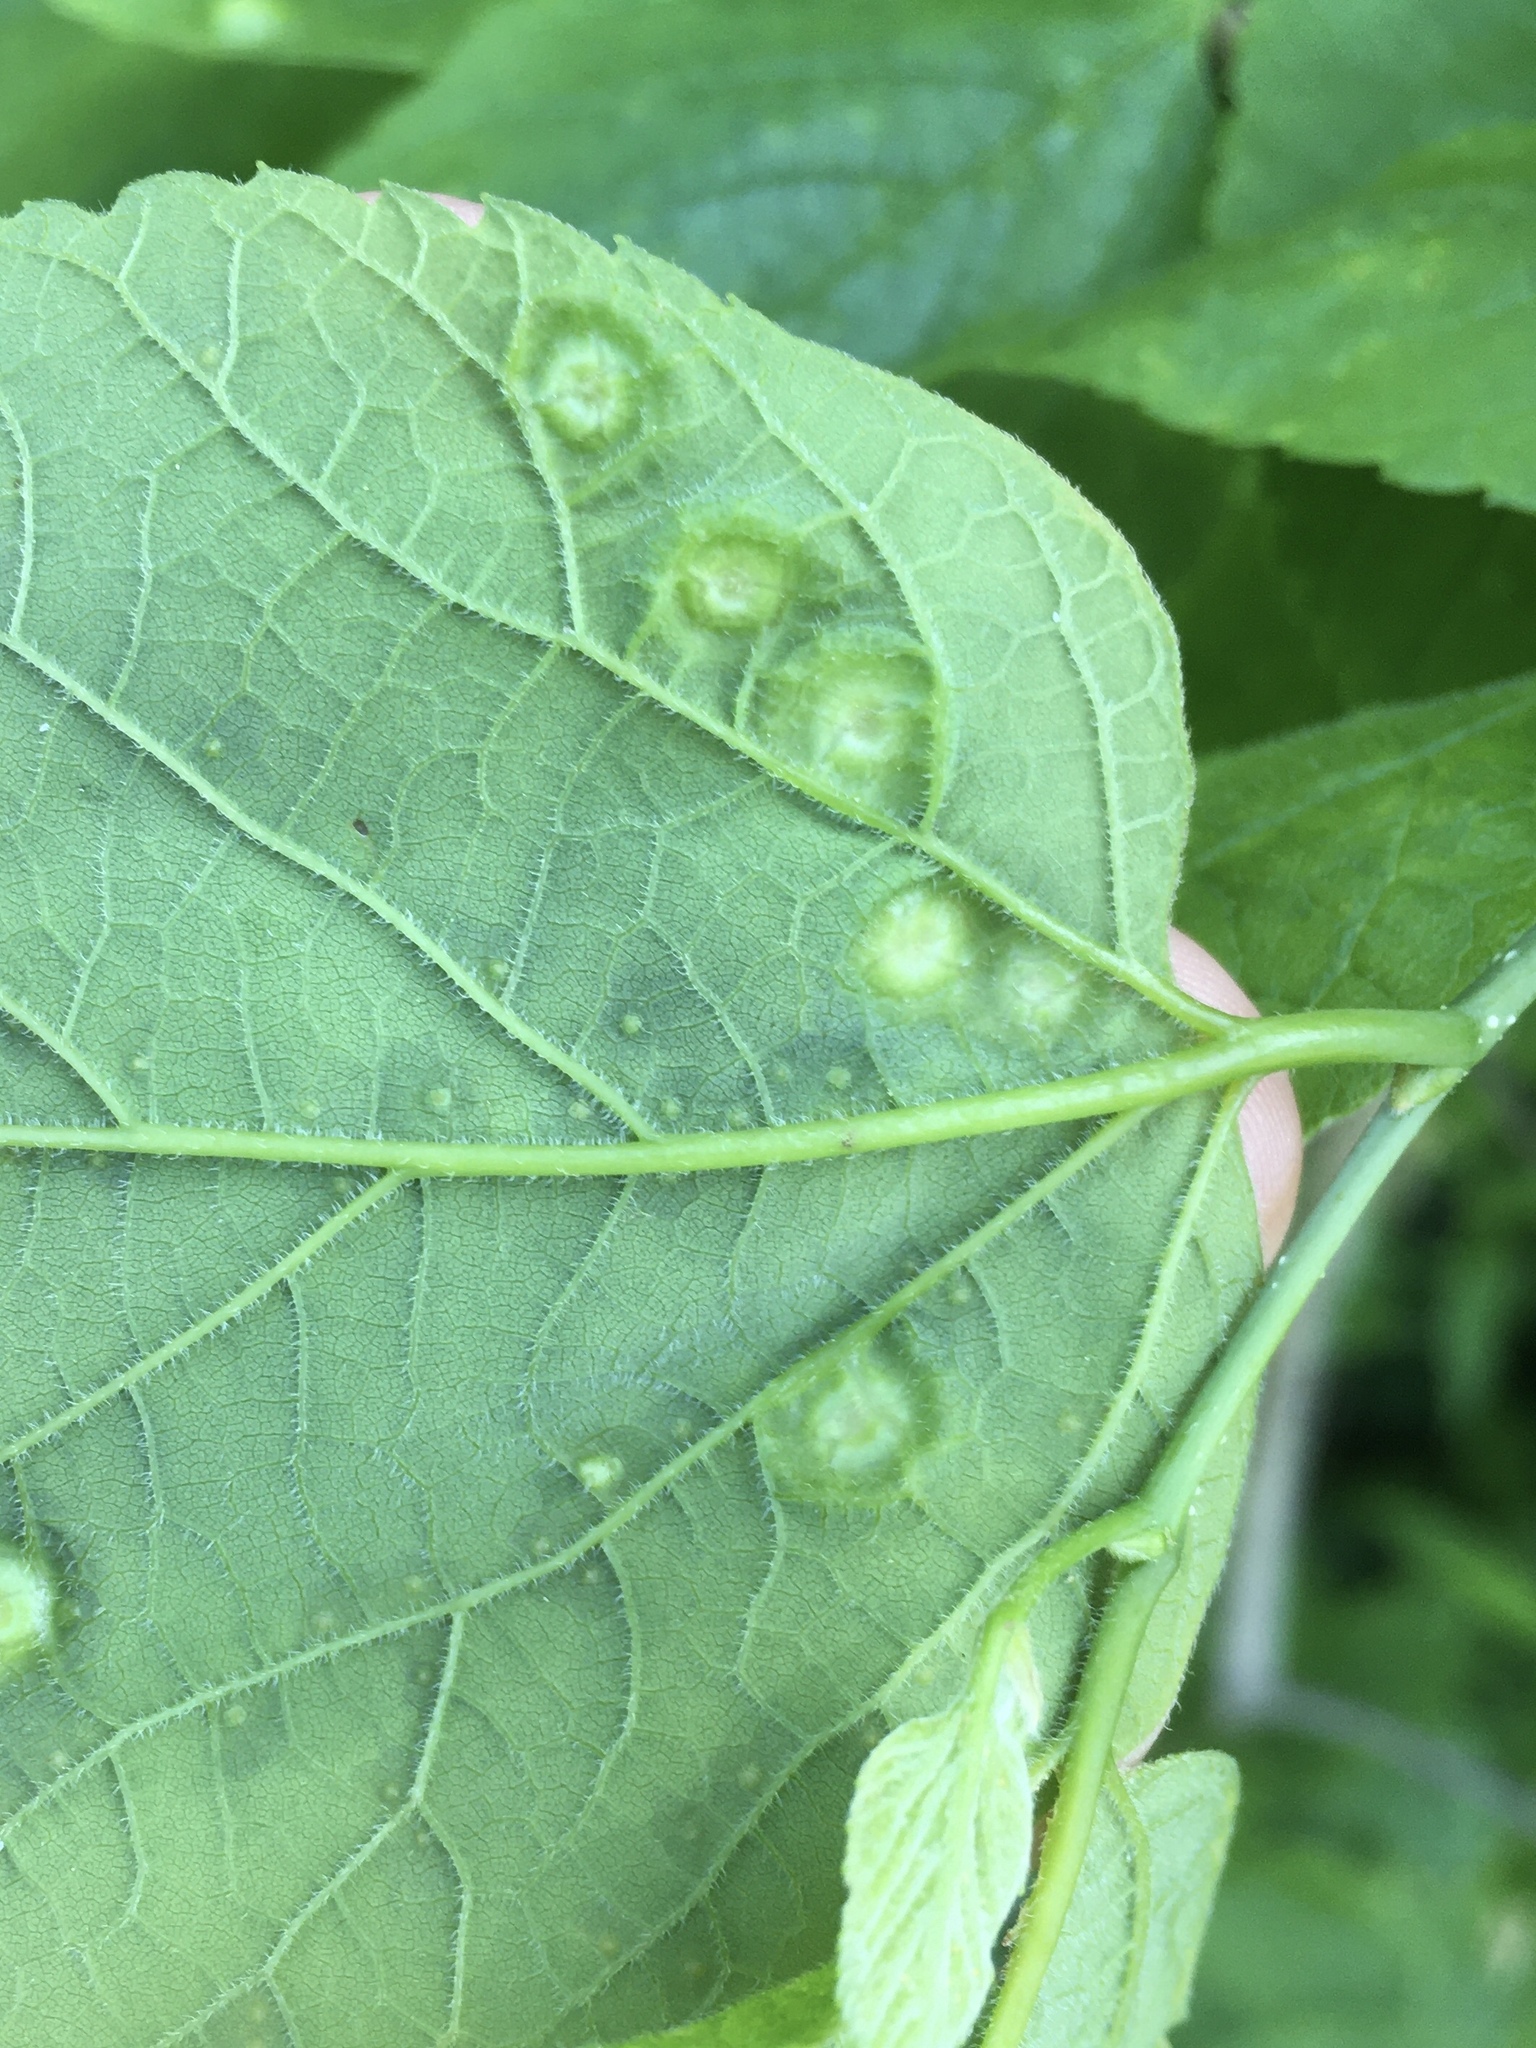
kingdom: Animalia
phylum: Arthropoda
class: Insecta
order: Hemiptera
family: Aphalaridae
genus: Pachypsylla
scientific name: Pachypsylla celtidisumbilicus
